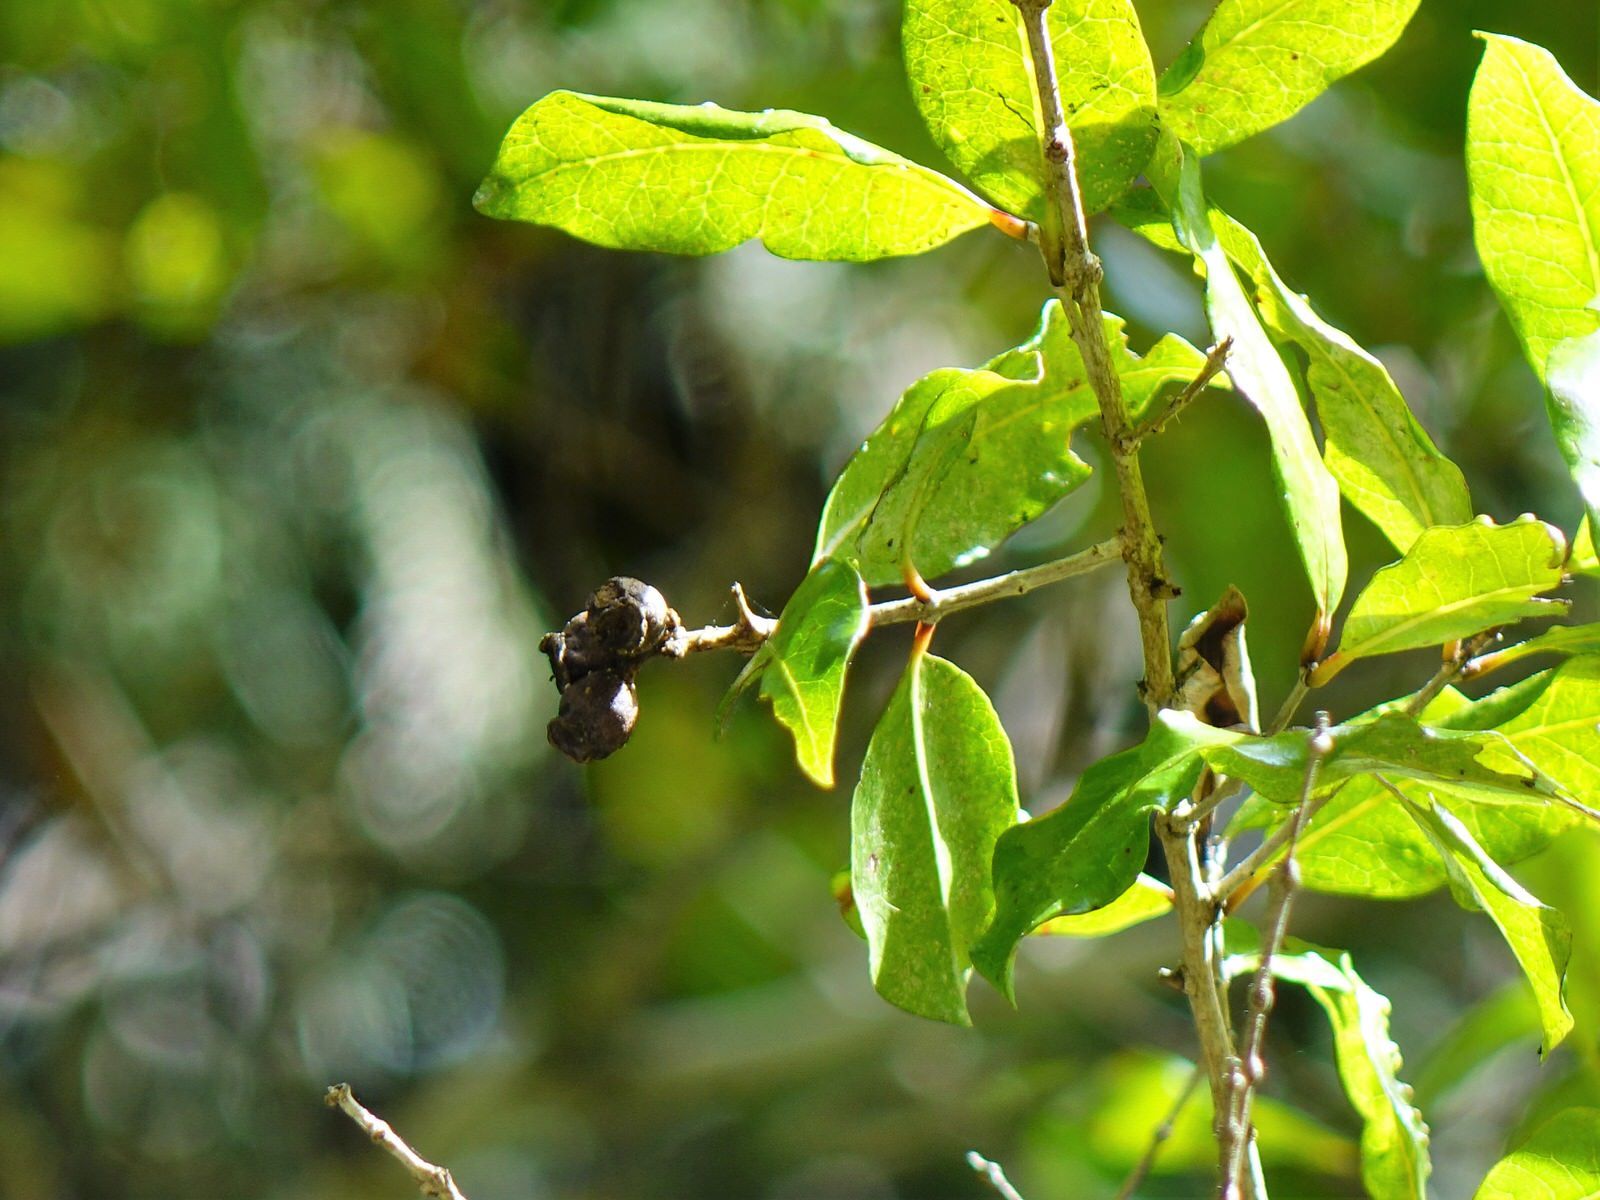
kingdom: Plantae
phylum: Tracheophyta
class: Magnoliopsida
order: Myrtales
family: Myrtaceae
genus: Syzygium
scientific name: Syzygium maire
